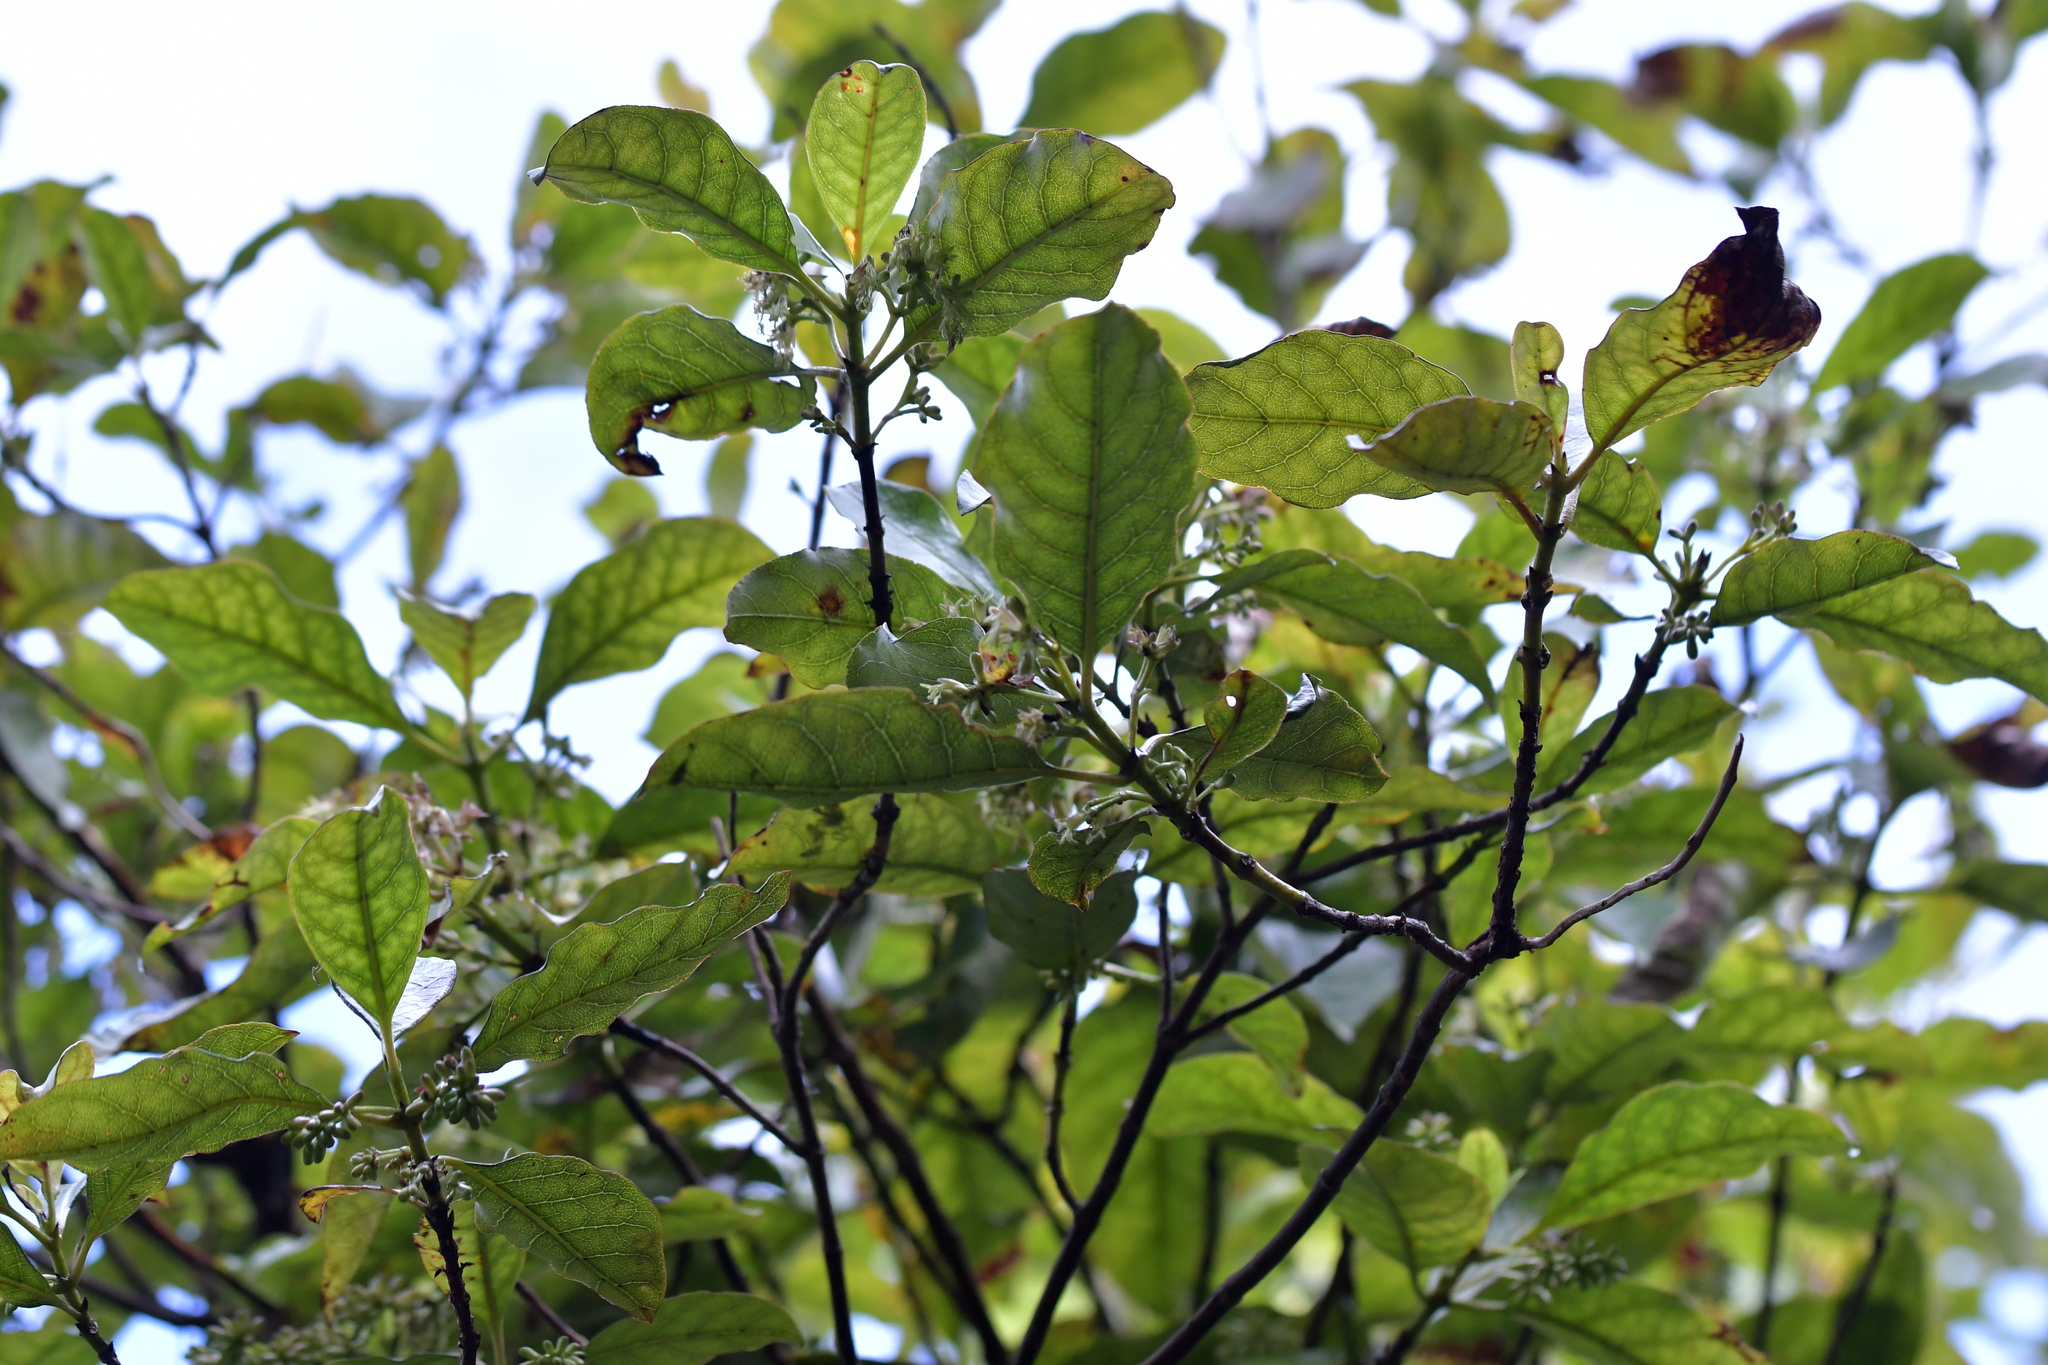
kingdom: Plantae
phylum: Tracheophyta
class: Magnoliopsida
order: Gentianales
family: Rubiaceae
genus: Coprosma
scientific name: Coprosma autumnalis
